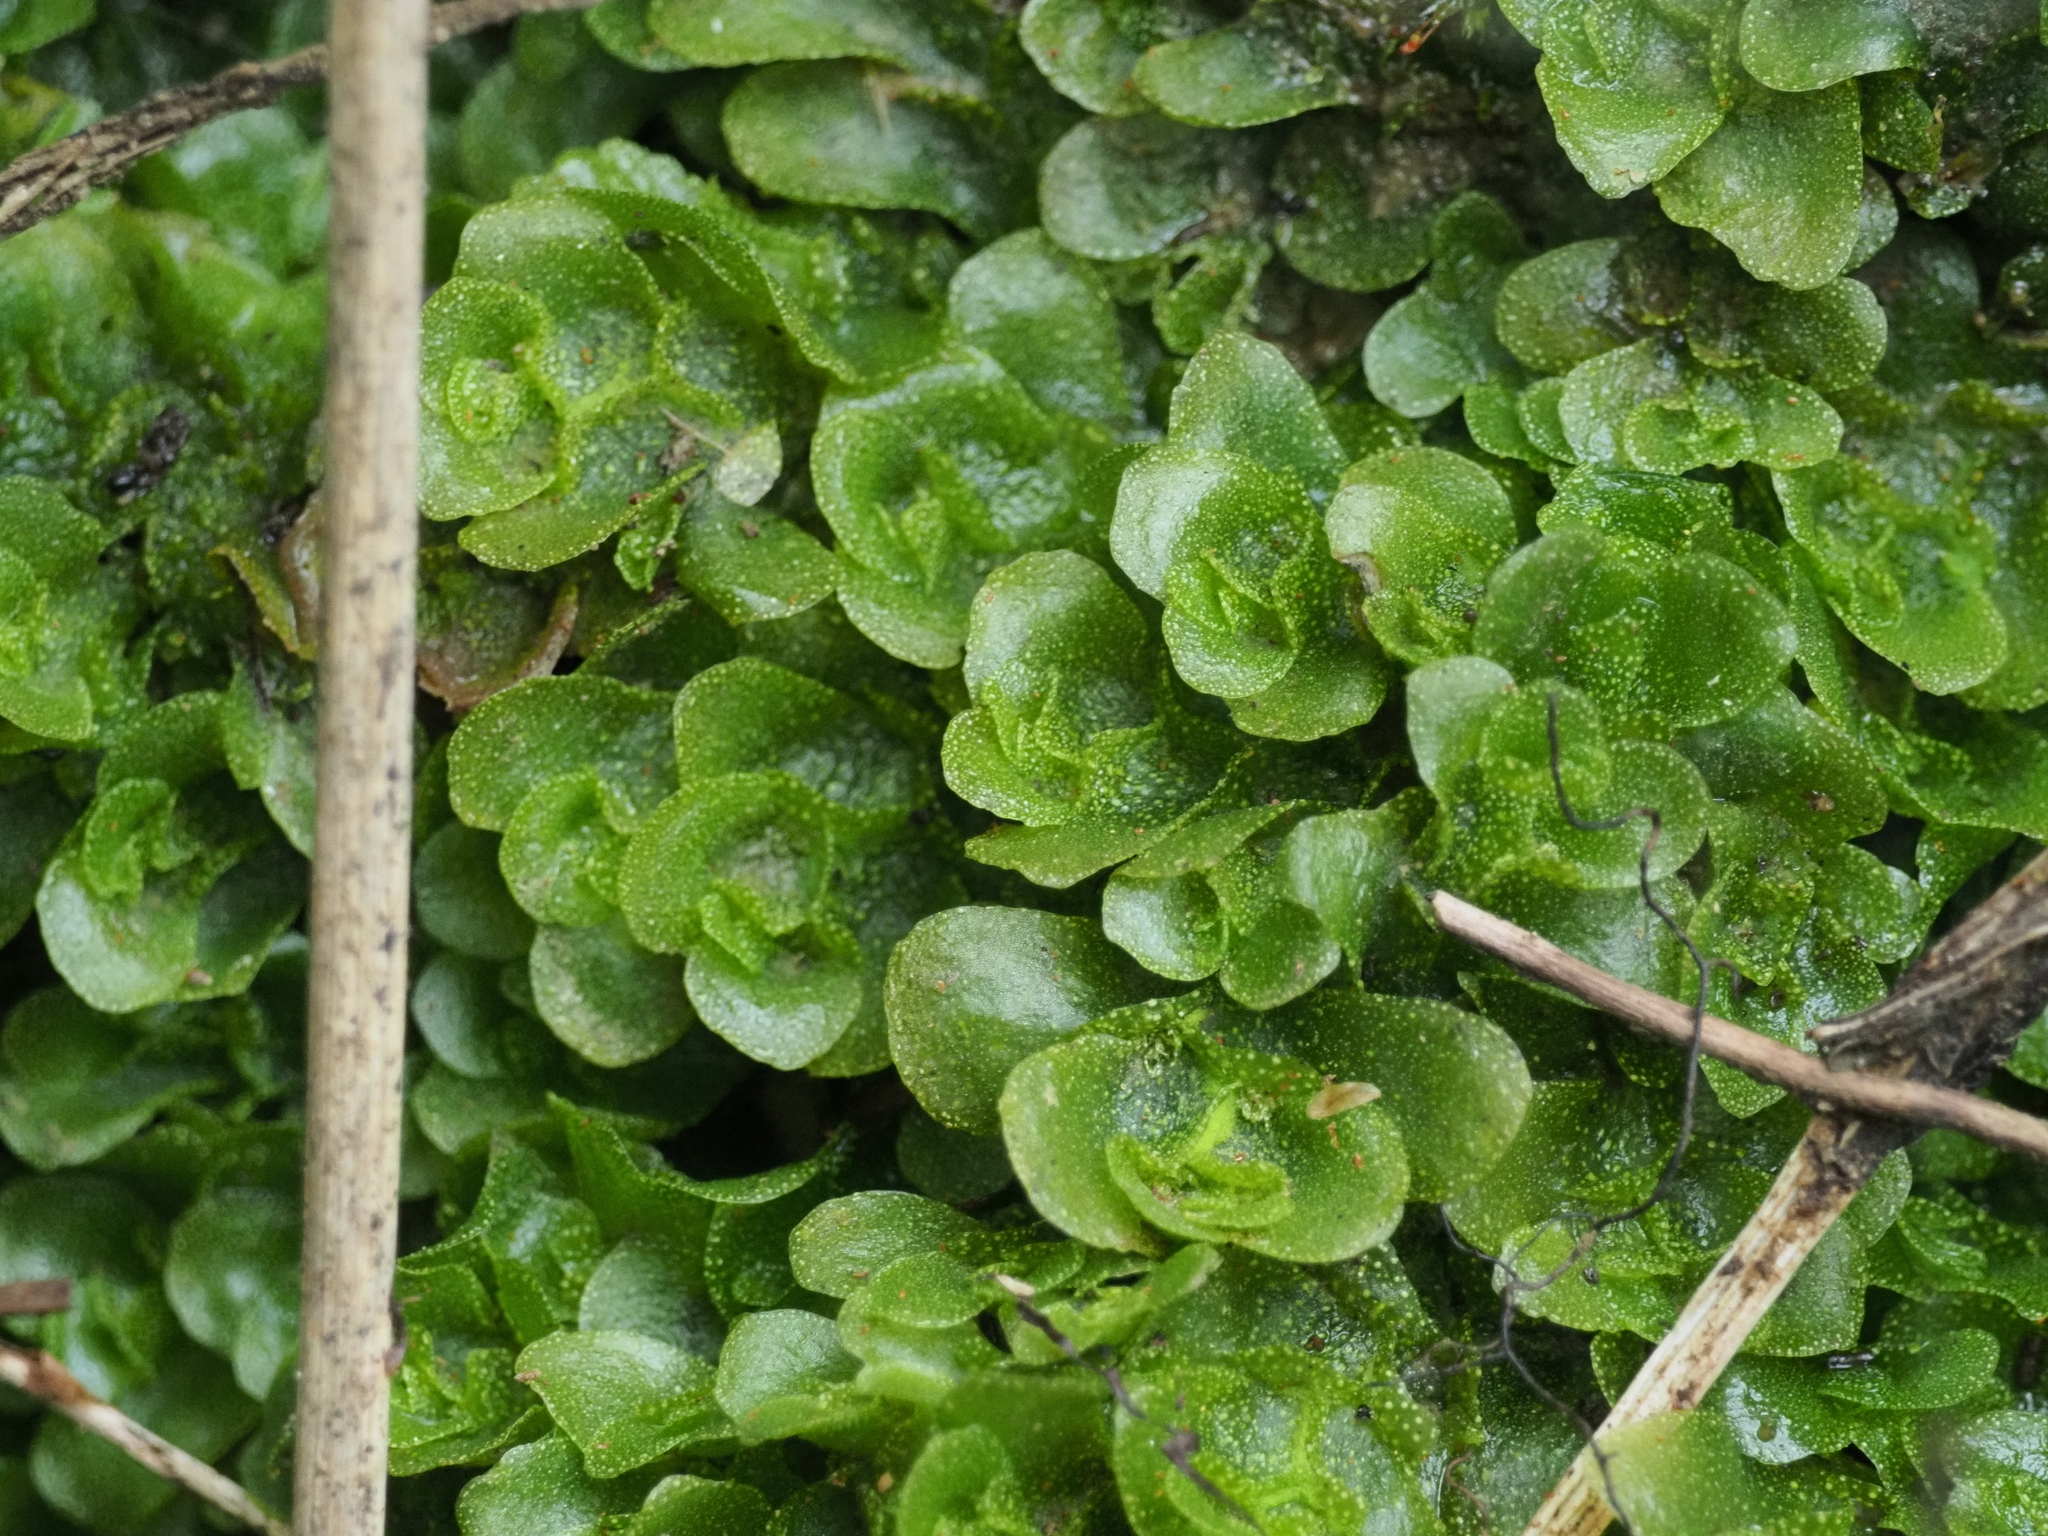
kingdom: Plantae
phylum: Marchantiophyta
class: Haplomitriopsida
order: Treubiales
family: Treubiaceae
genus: Treubia
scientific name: Treubia lacunosa
